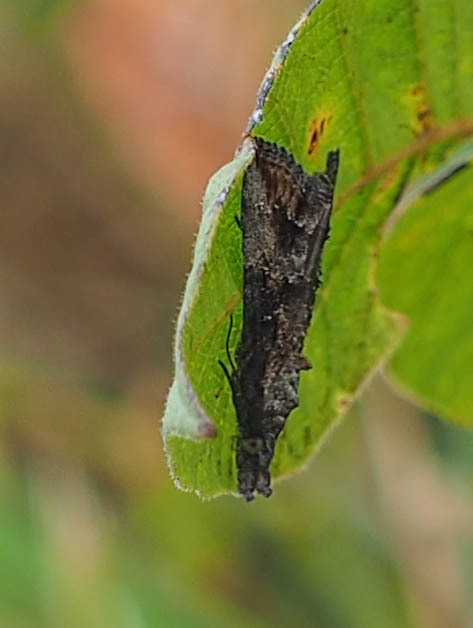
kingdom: Animalia
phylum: Arthropoda
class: Insecta
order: Lepidoptera
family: Erebidae
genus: Hypena
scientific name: Hypena scabra
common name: Green cloverworm
